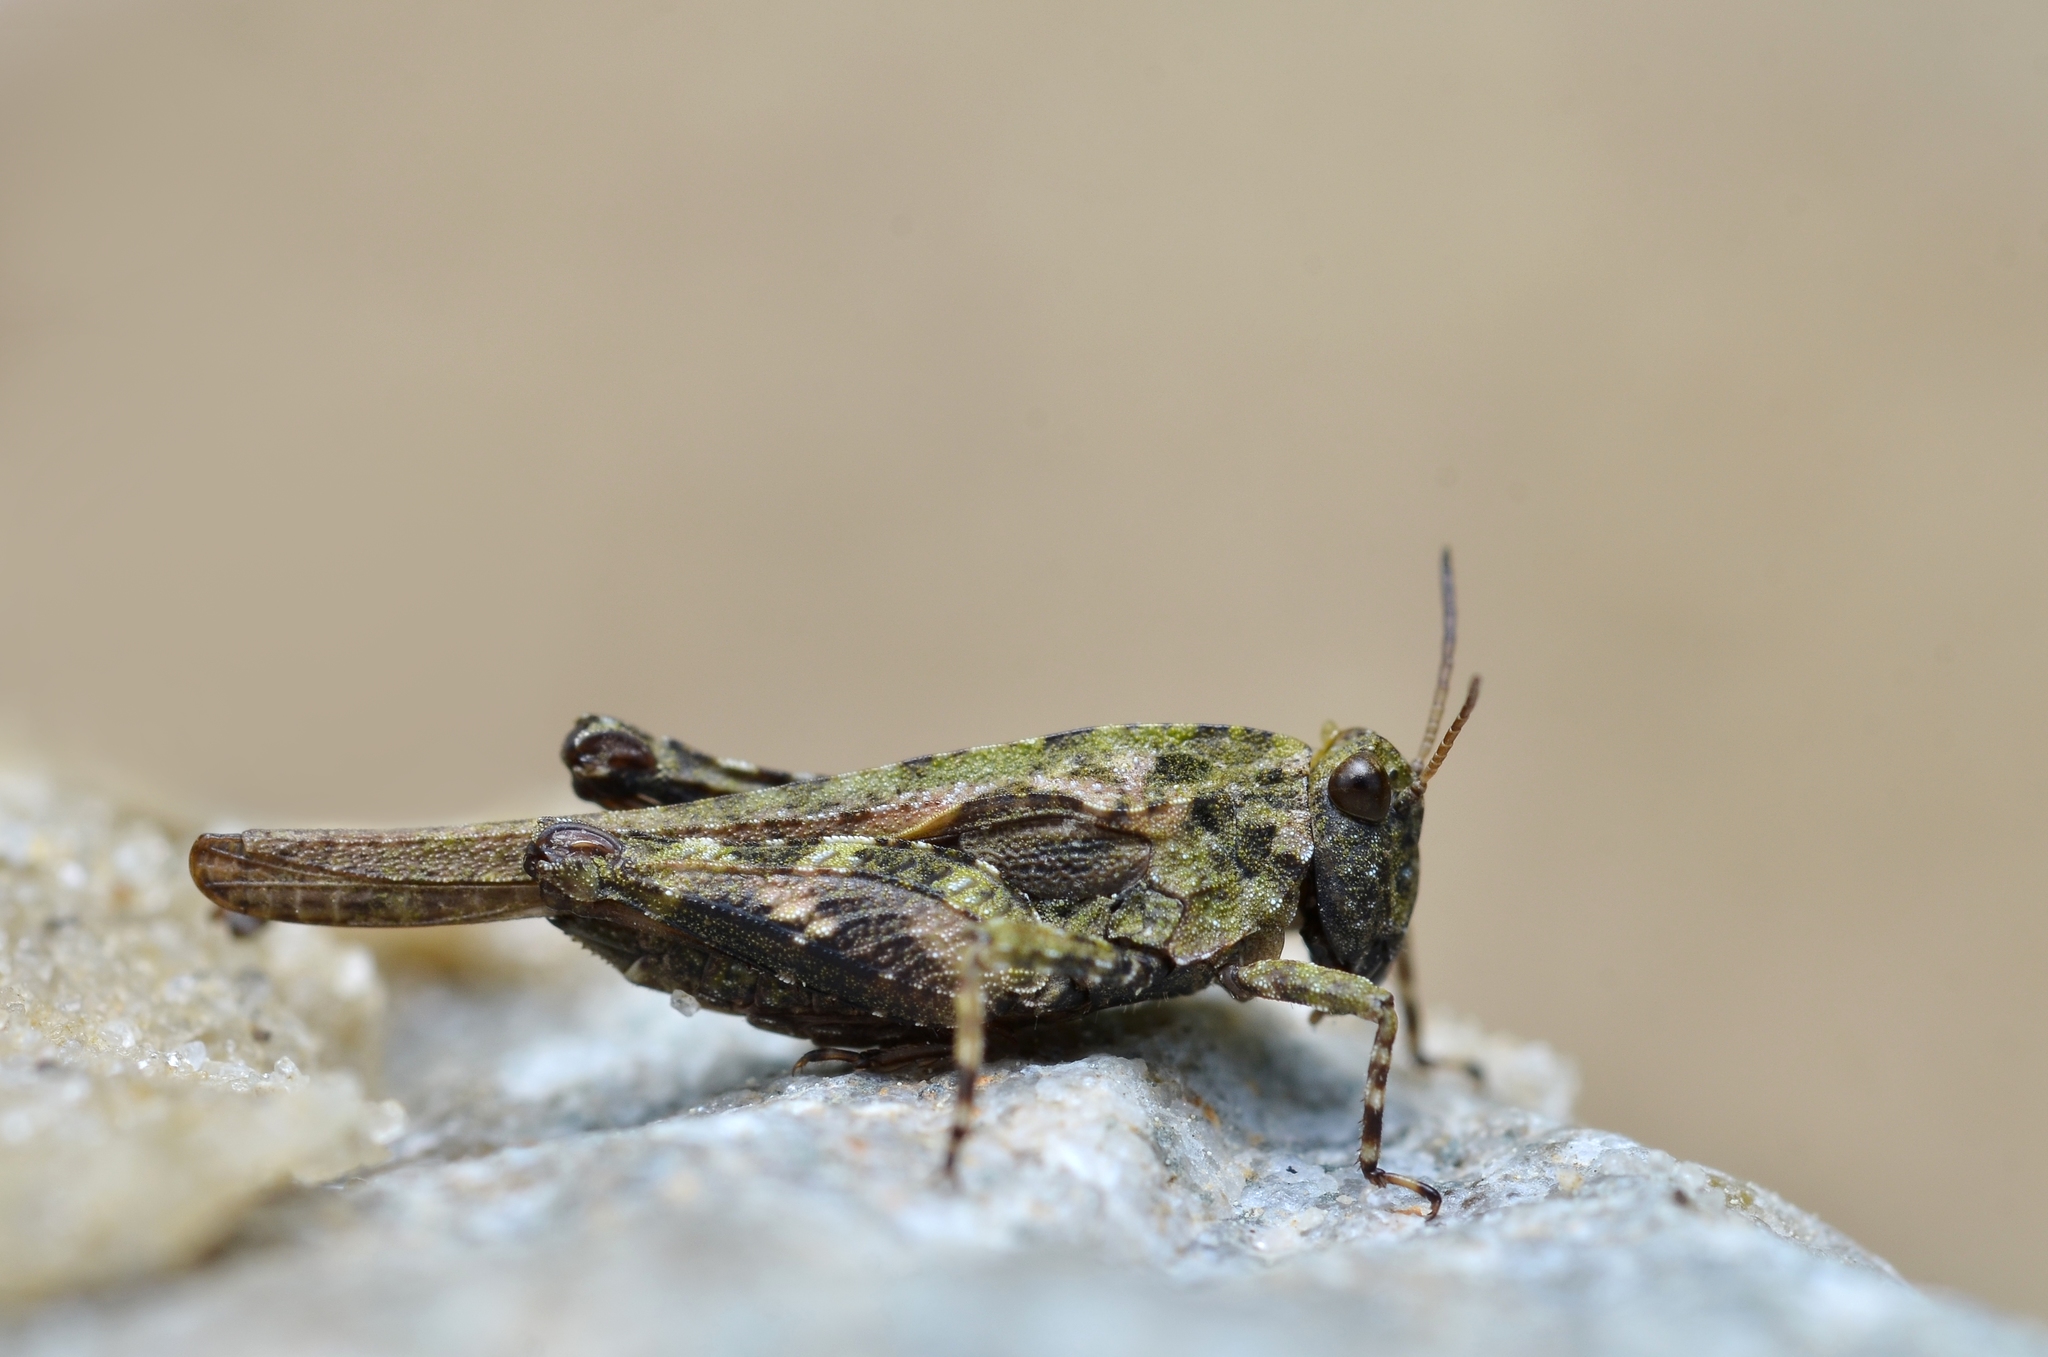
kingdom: Animalia
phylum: Arthropoda
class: Insecta
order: Orthoptera
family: Tetrigidae
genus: Tetrix
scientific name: Tetrix ceperoi
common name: Cepero's ground-hopper
